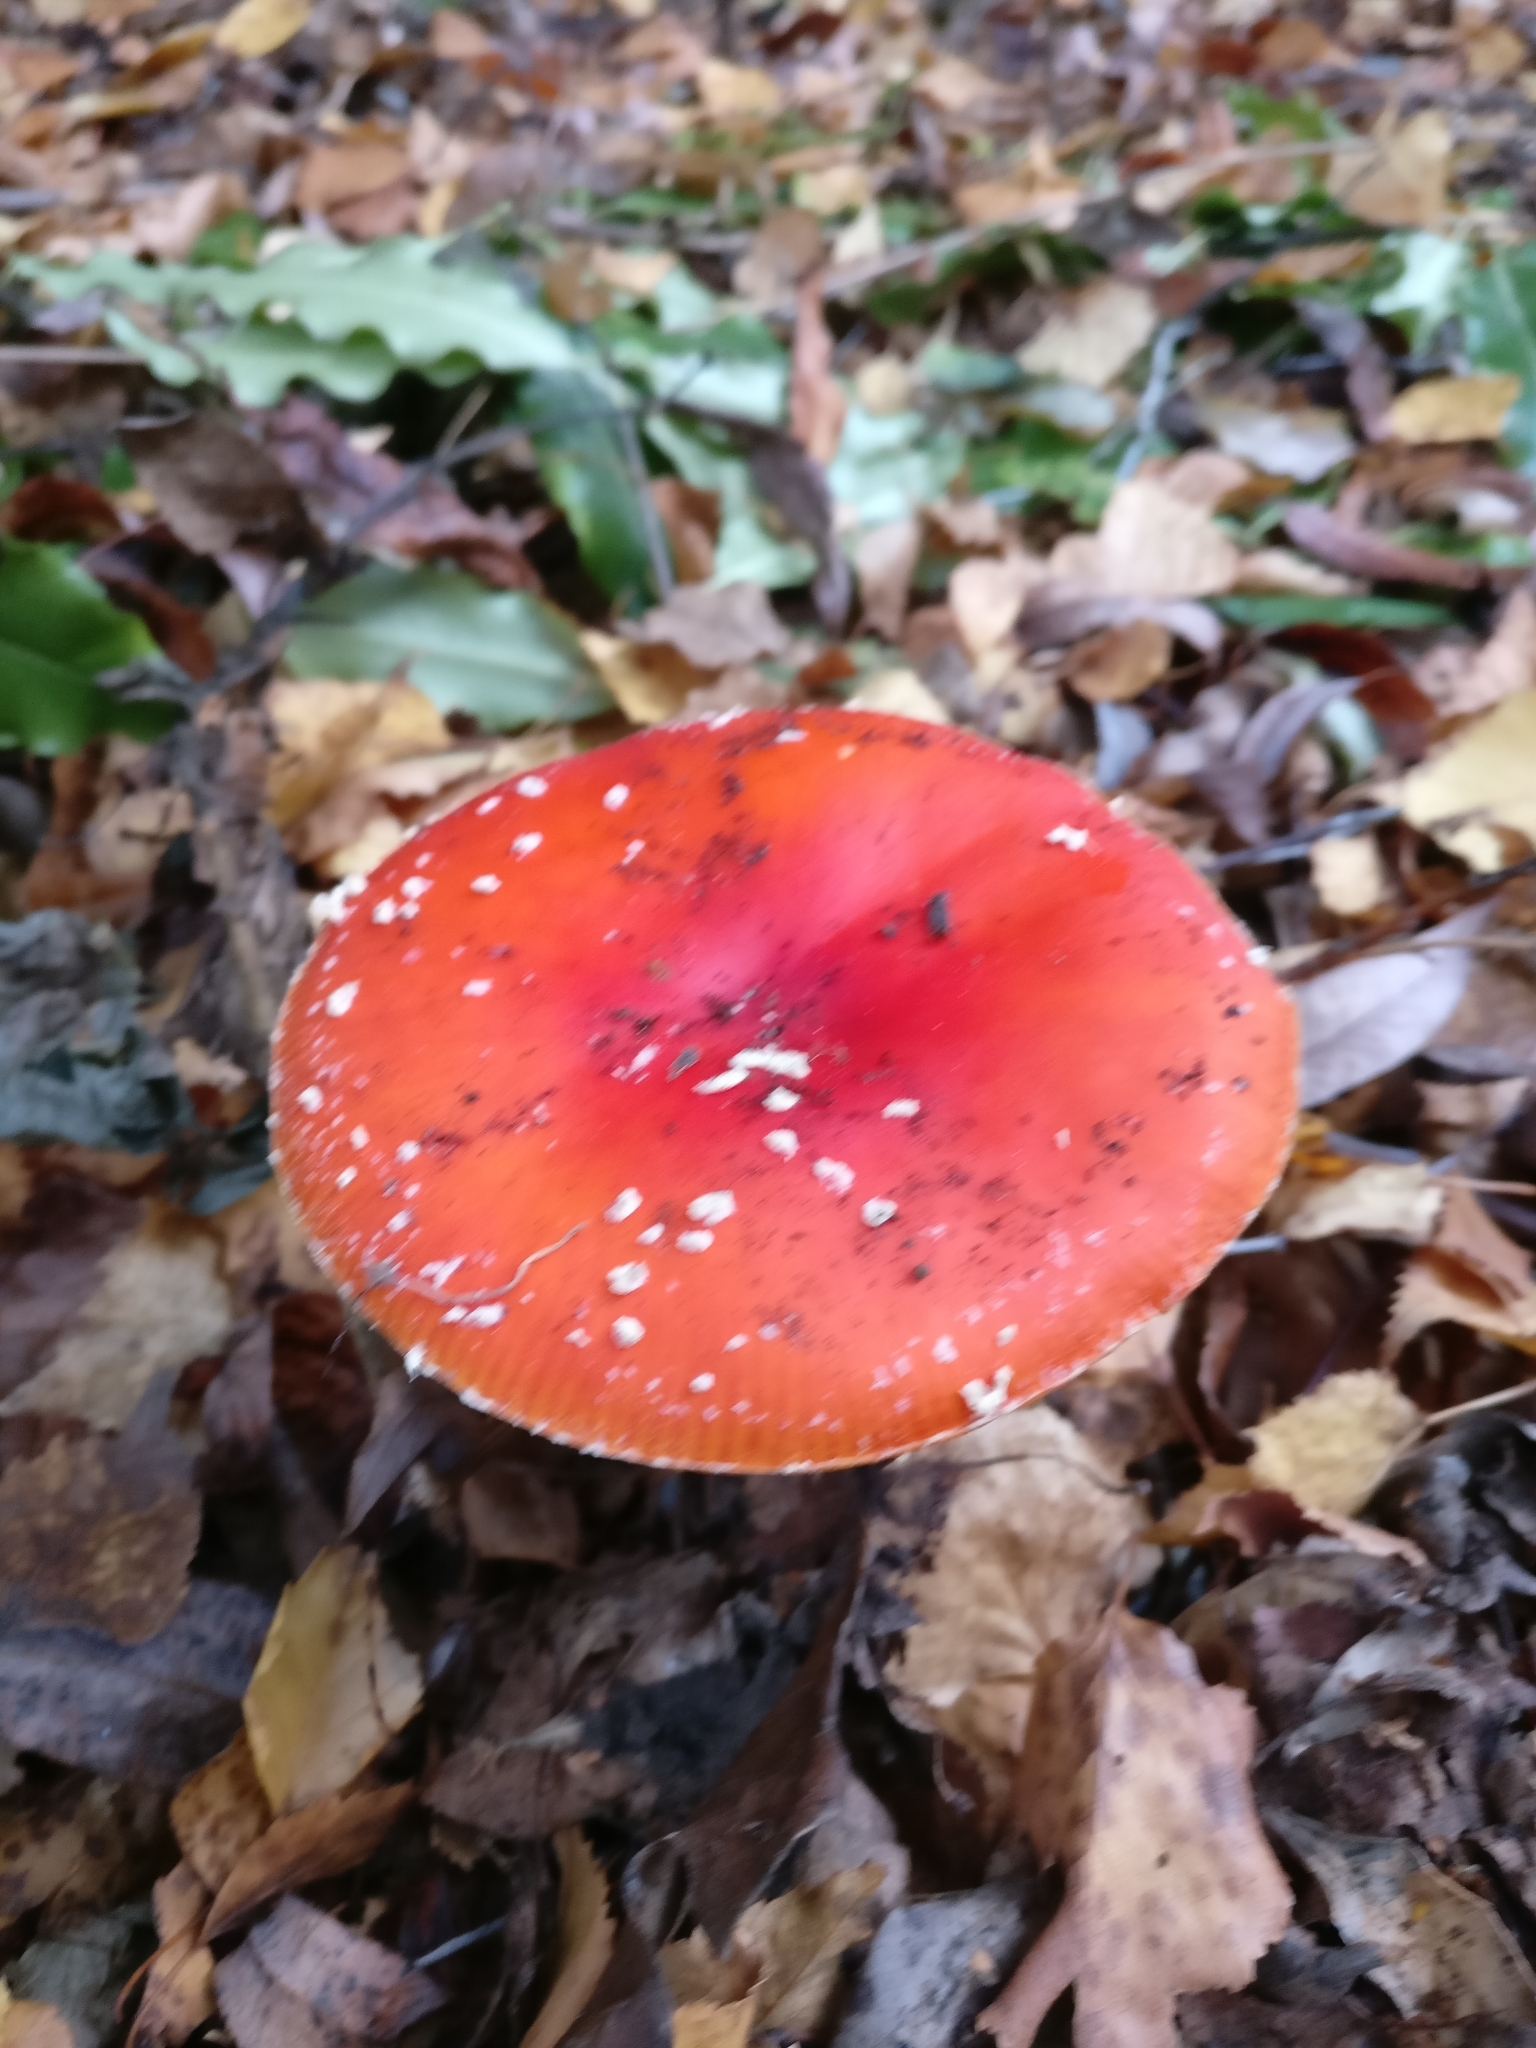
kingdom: Fungi
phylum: Basidiomycota
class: Agaricomycetes
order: Agaricales
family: Amanitaceae
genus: Amanita
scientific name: Amanita muscaria
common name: Fly agaric
